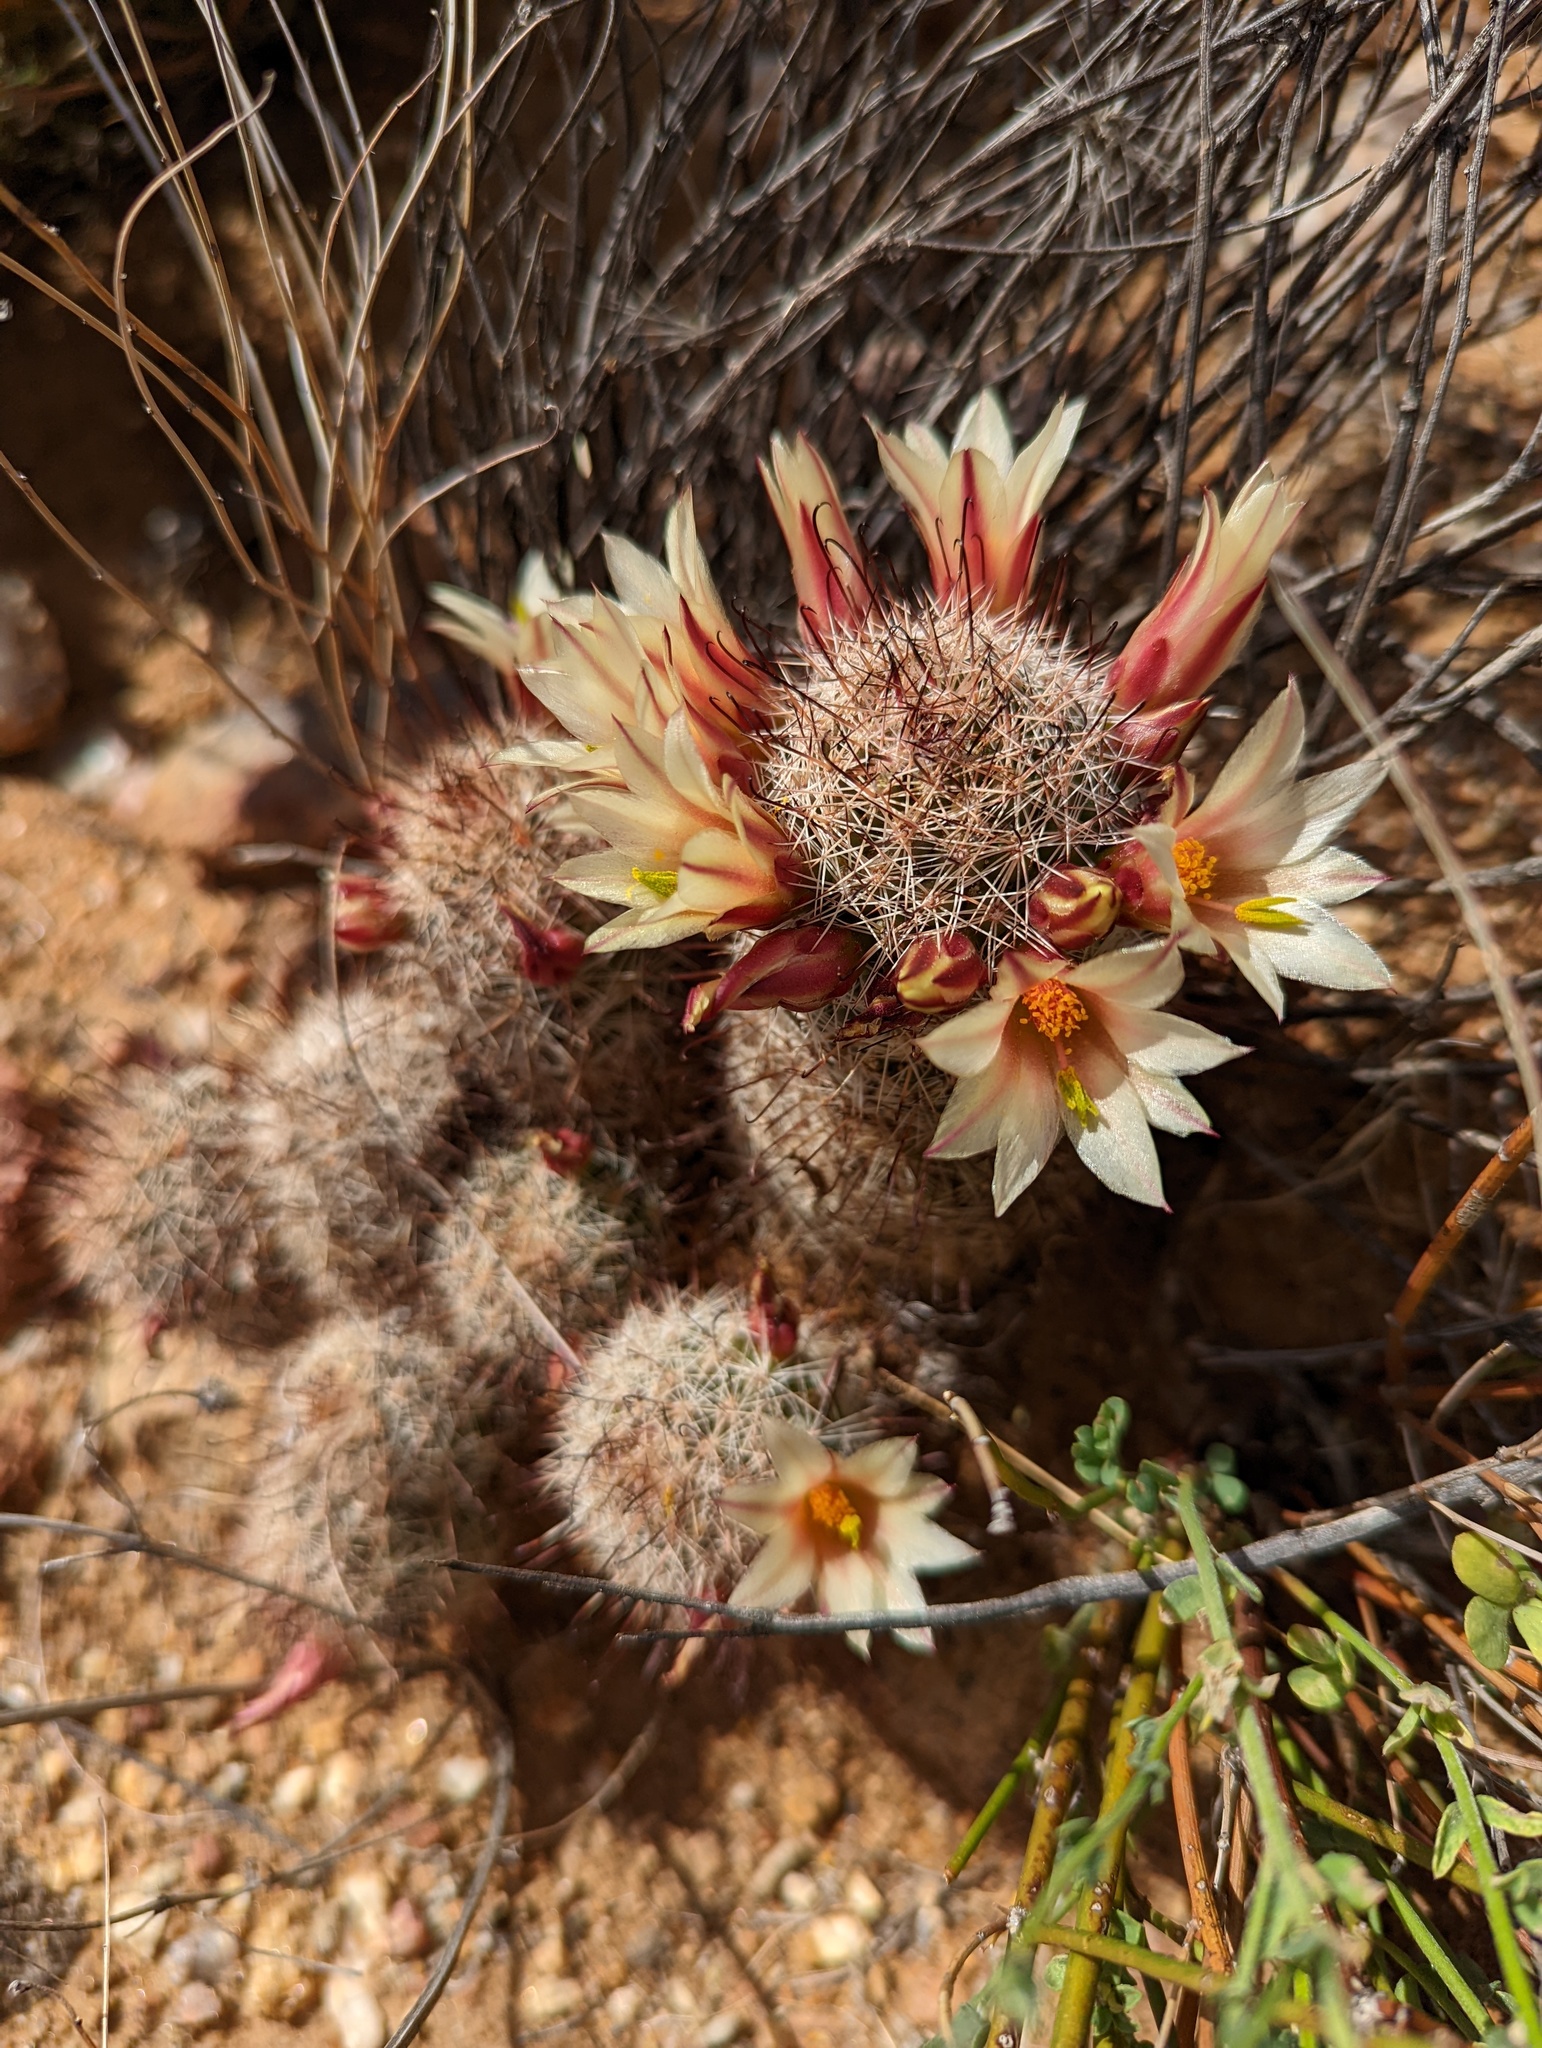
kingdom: Plantae
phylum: Tracheophyta
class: Magnoliopsida
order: Caryophyllales
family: Cactaceae
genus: Cochemiea
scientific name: Cochemiea dioica
